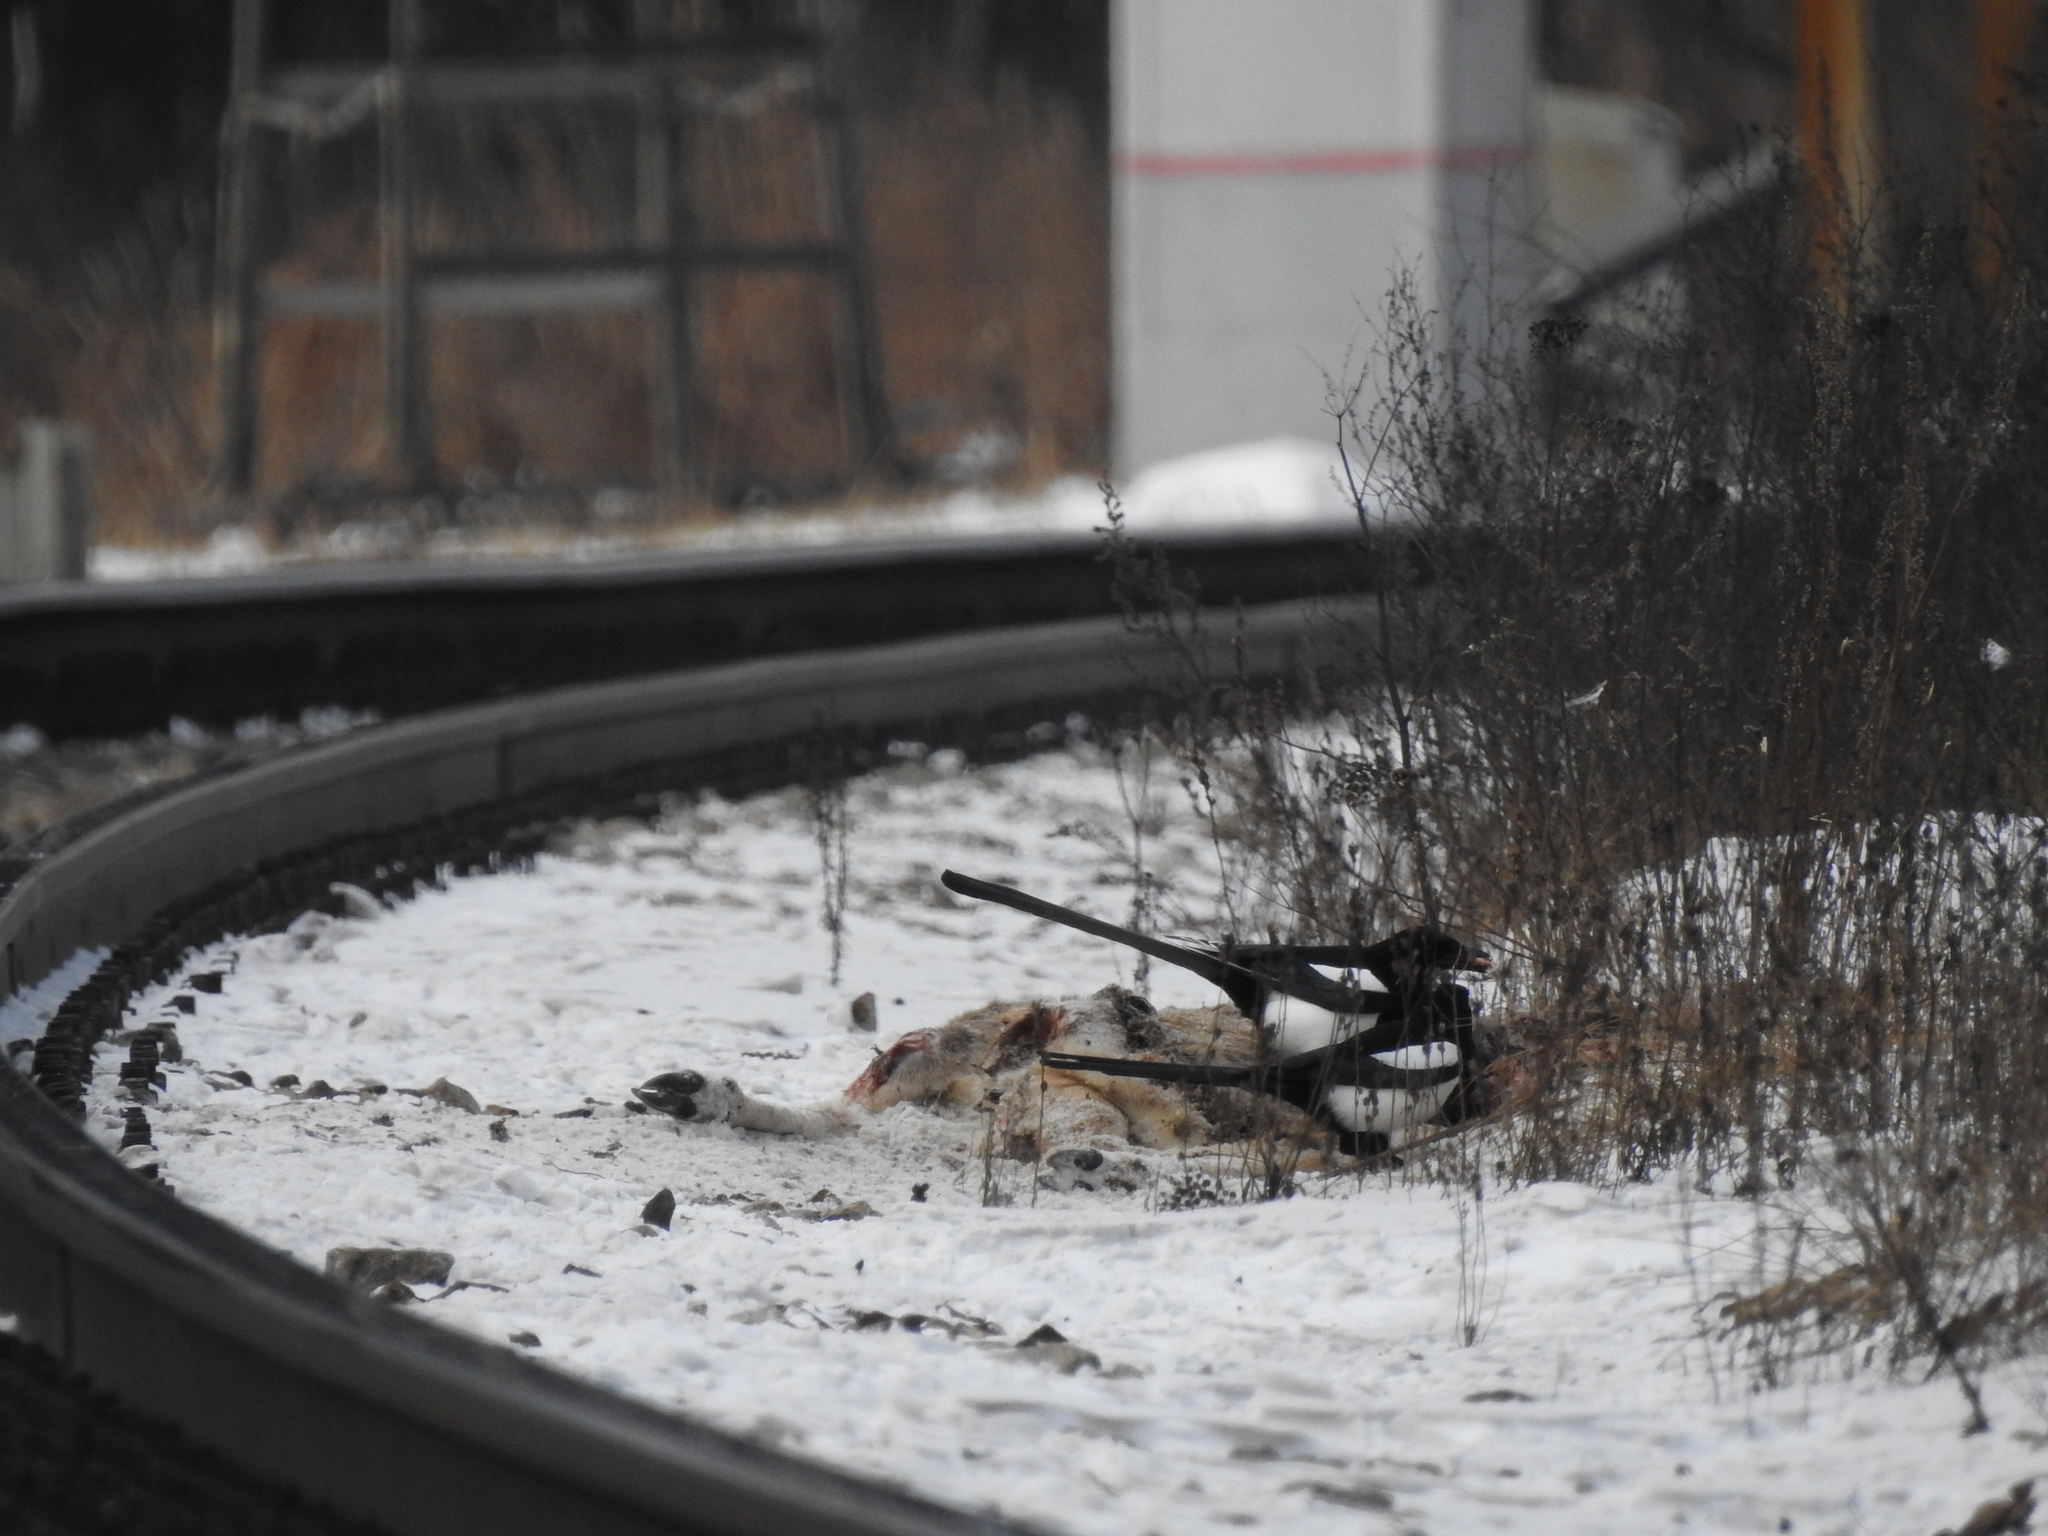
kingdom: Animalia
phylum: Chordata
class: Aves
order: Passeriformes
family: Corvidae
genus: Pica
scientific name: Pica pica
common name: Eurasian magpie
